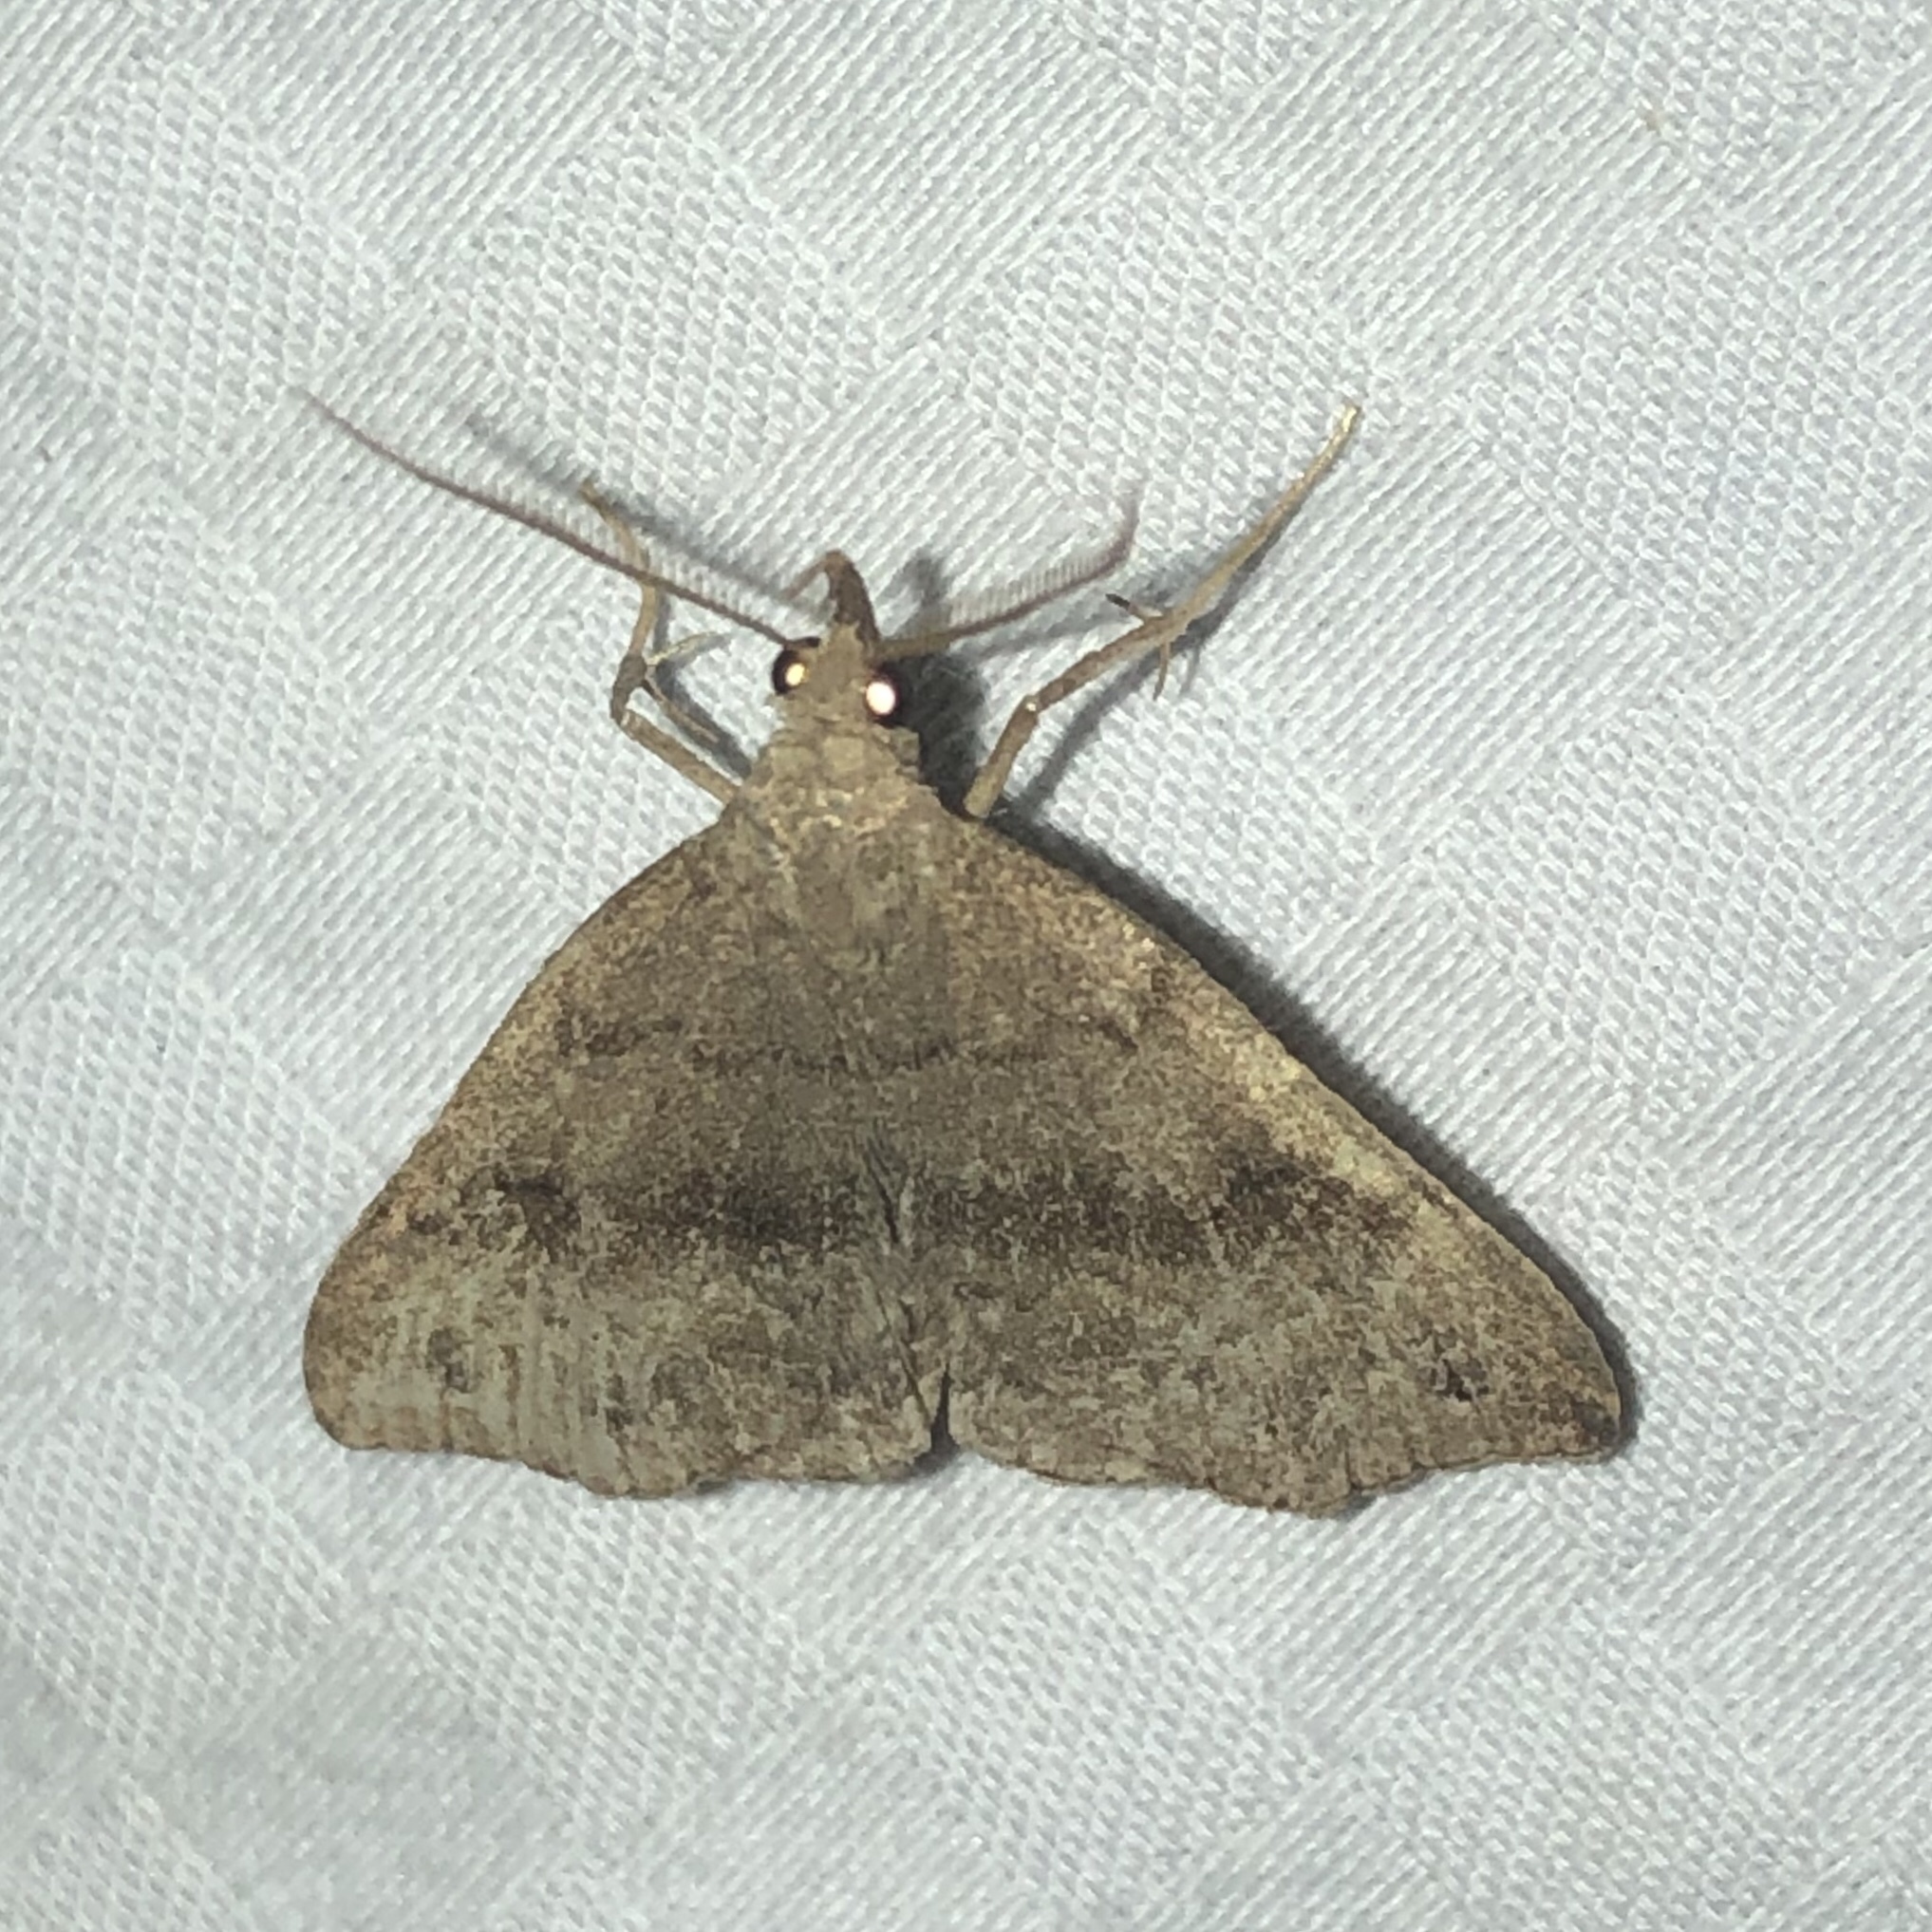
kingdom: Animalia
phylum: Arthropoda
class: Insecta
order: Lepidoptera
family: Erebidae
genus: Phalaenostola
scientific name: Phalaenostola eumelusalis
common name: Dark phalaenostola moth
